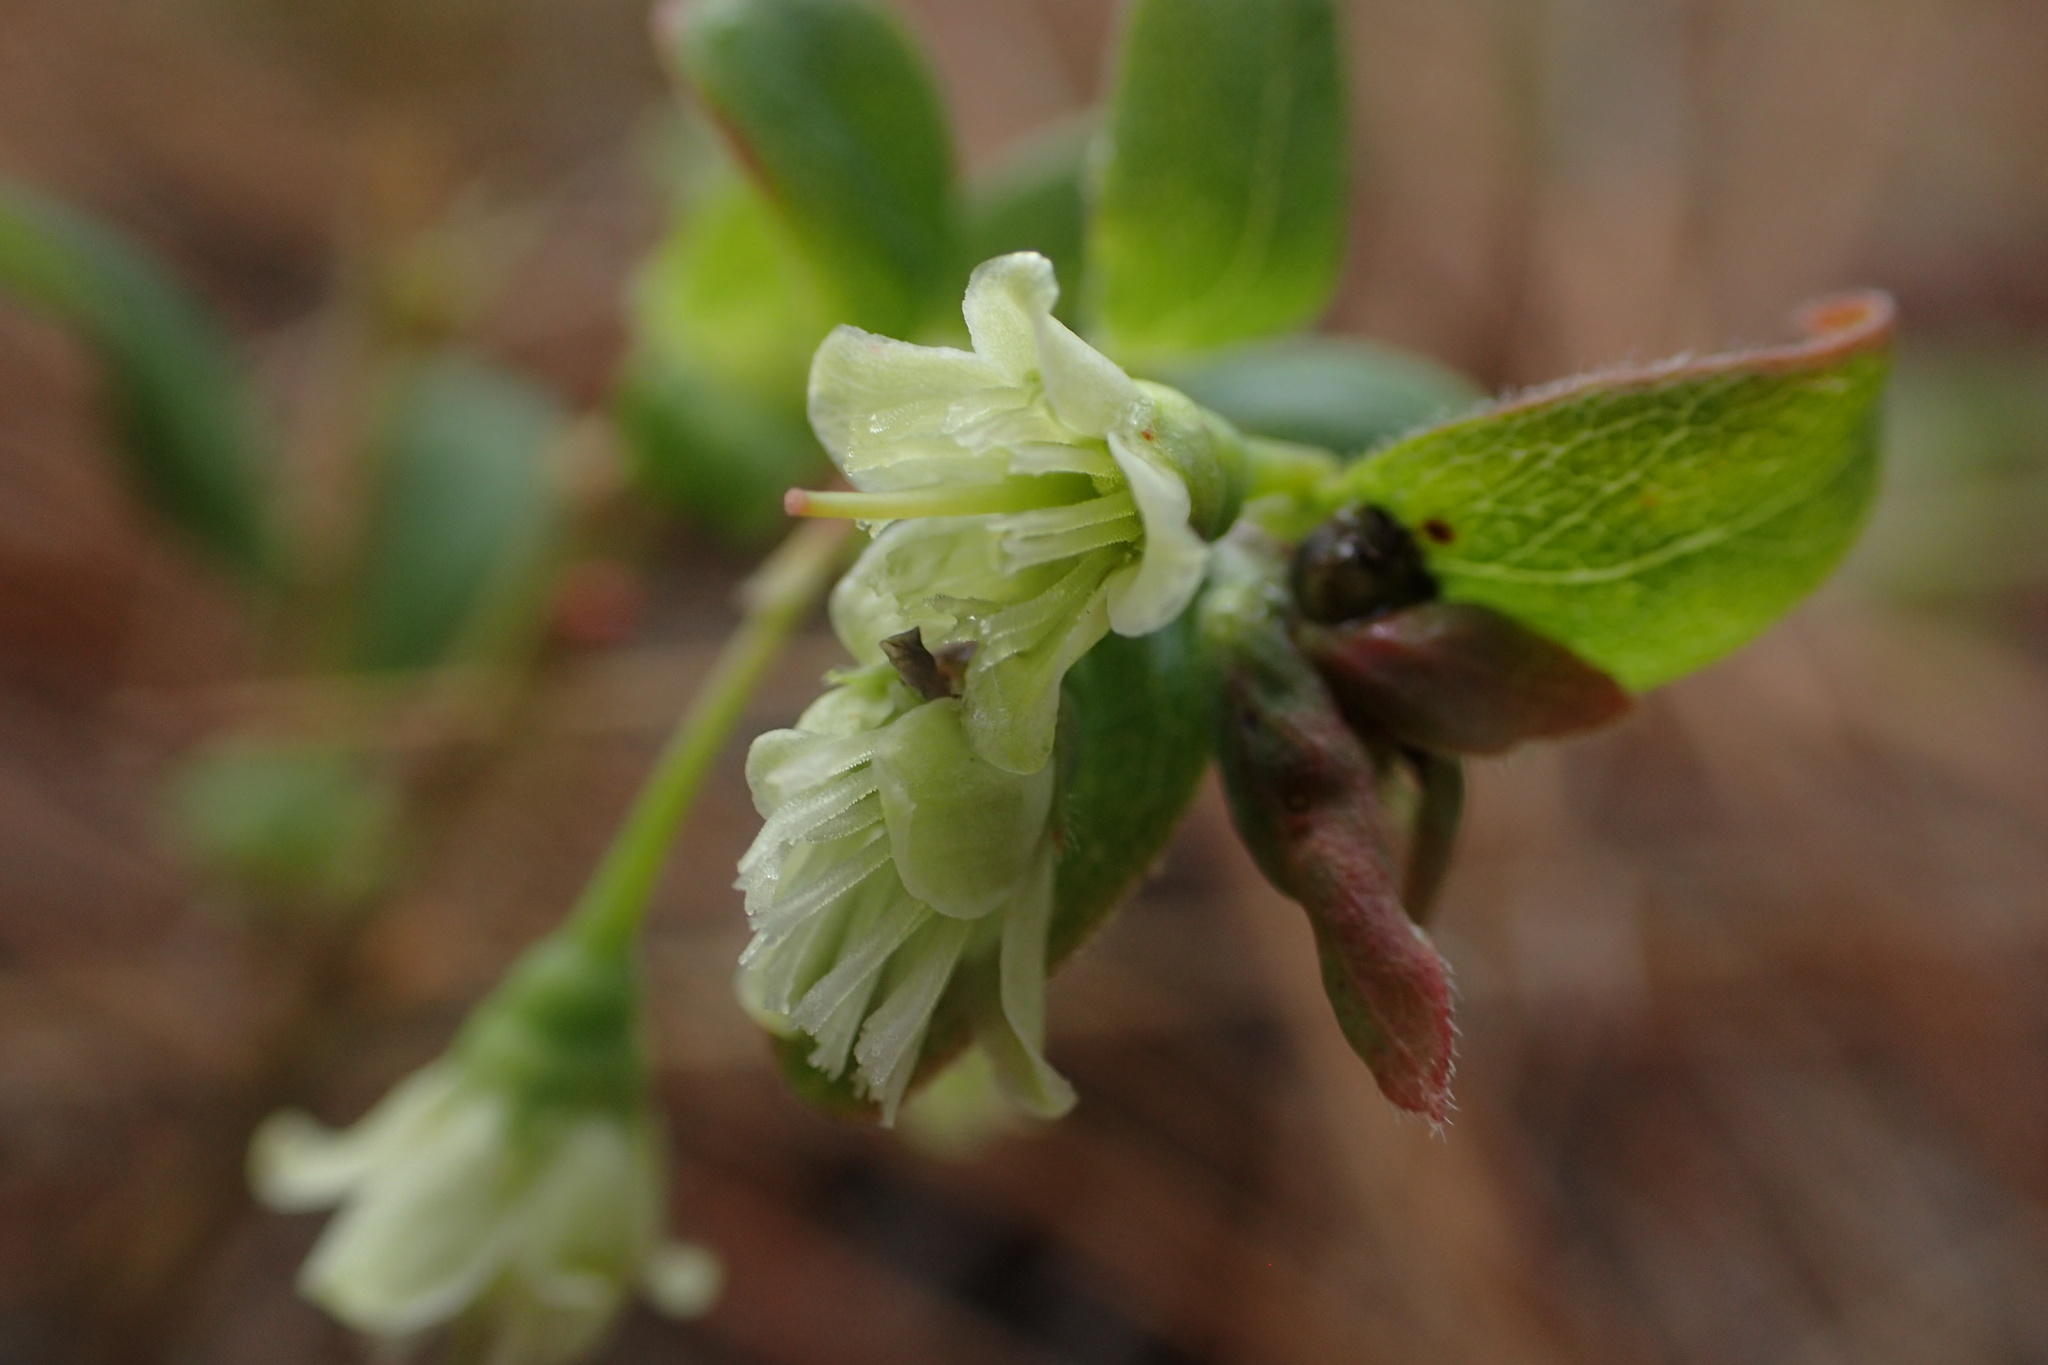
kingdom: Plantae
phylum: Tracheophyta
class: Magnoliopsida
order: Ericales
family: Ericaceae
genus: Vaccinium
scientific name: Vaccinium stamineum
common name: Deerberry
